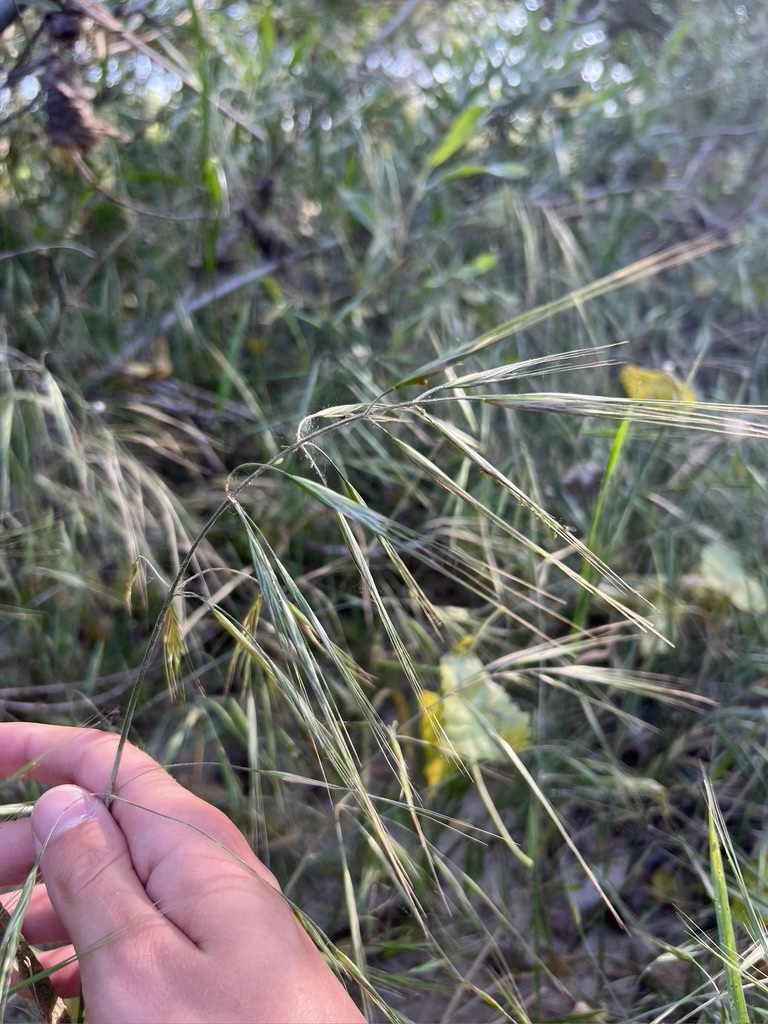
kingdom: Plantae
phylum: Tracheophyta
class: Liliopsida
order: Poales
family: Poaceae
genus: Bromus
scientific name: Bromus diandrus
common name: Ripgut brome
